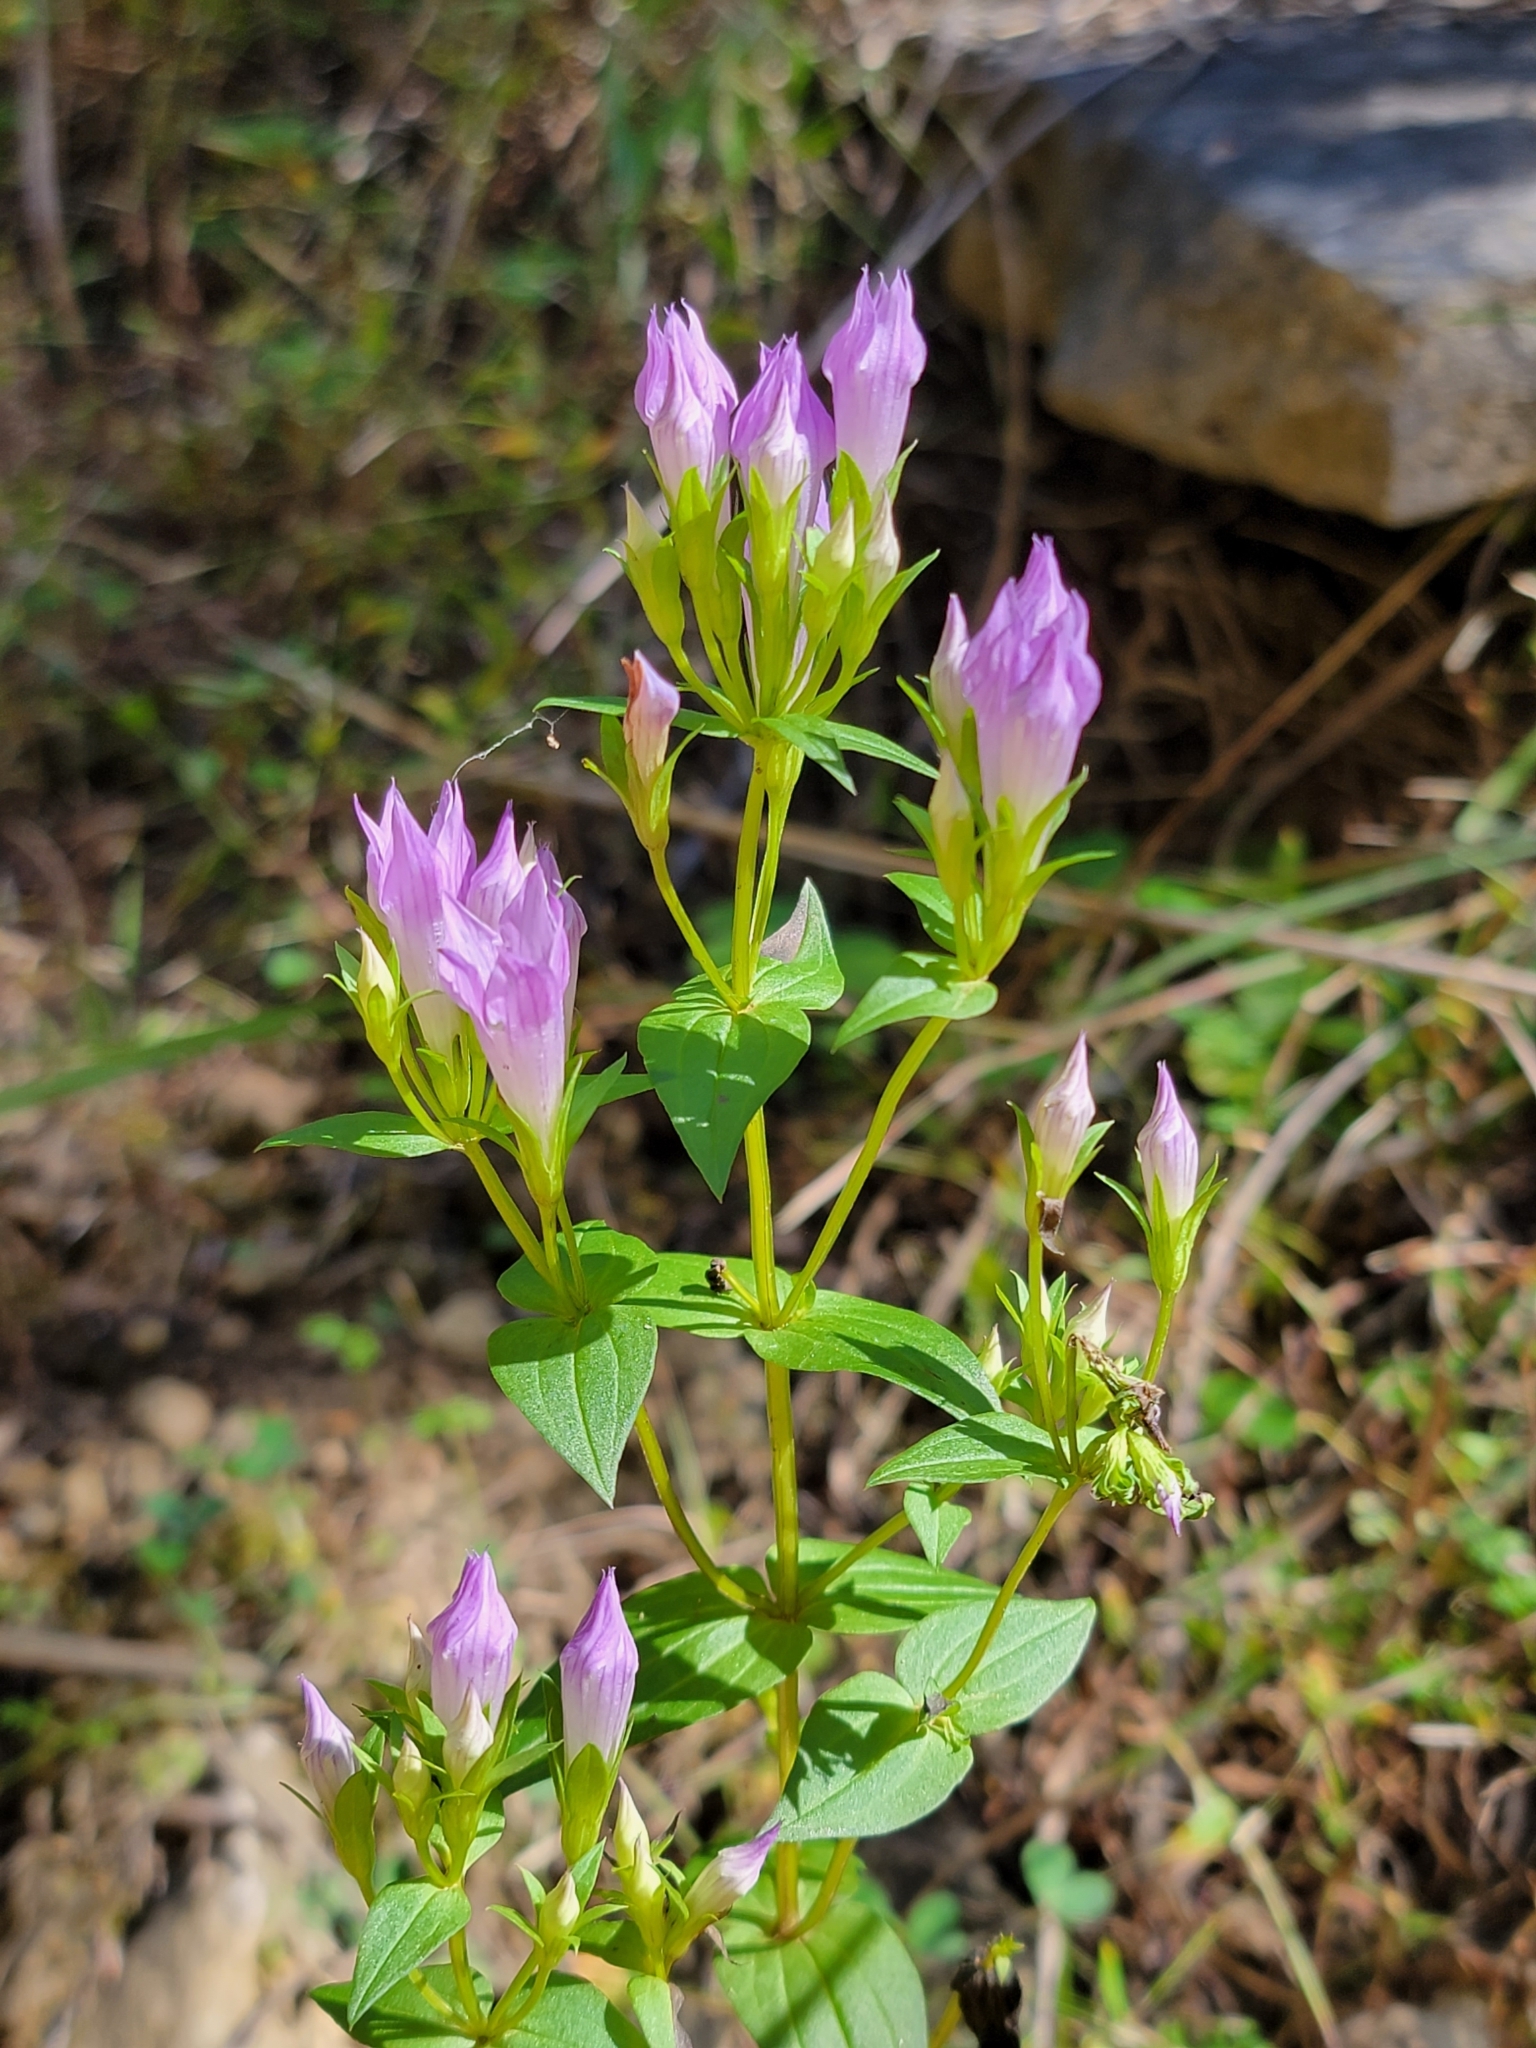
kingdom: Plantae
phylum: Tracheophyta
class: Magnoliopsida
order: Gentianales
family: Gentianaceae
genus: Gentianella
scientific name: Gentianella quinquefolia
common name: Agueweed
